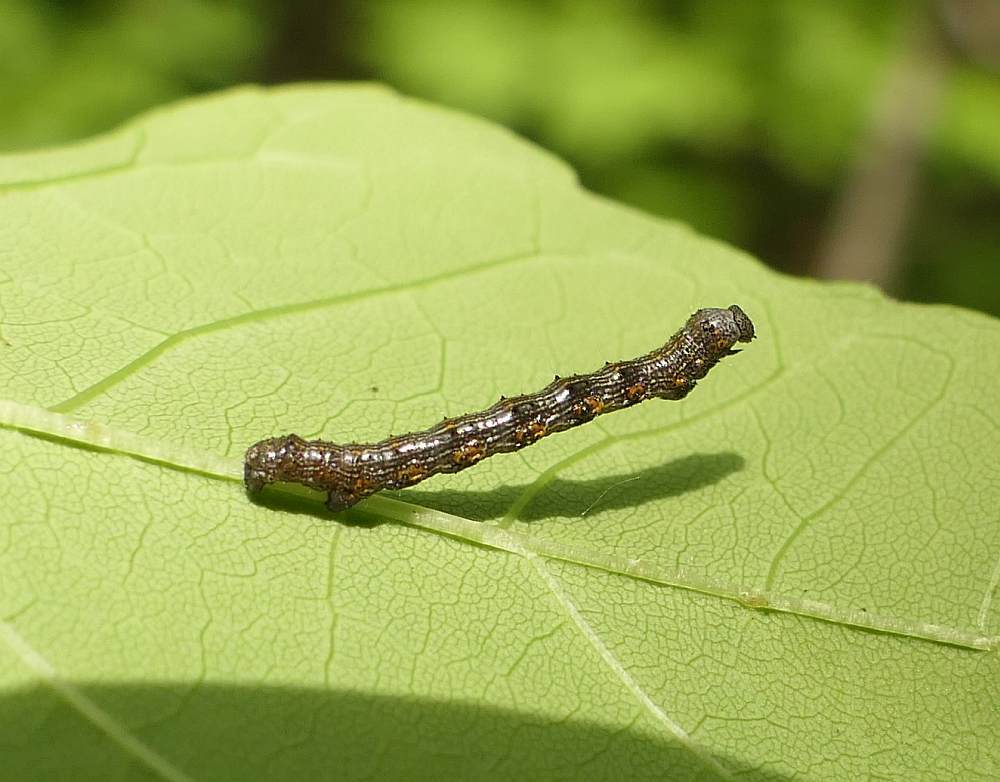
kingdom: Animalia
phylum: Arthropoda
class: Insecta
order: Lepidoptera
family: Geometridae
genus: Phigalia
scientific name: Phigalia titea
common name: Spiny looper
